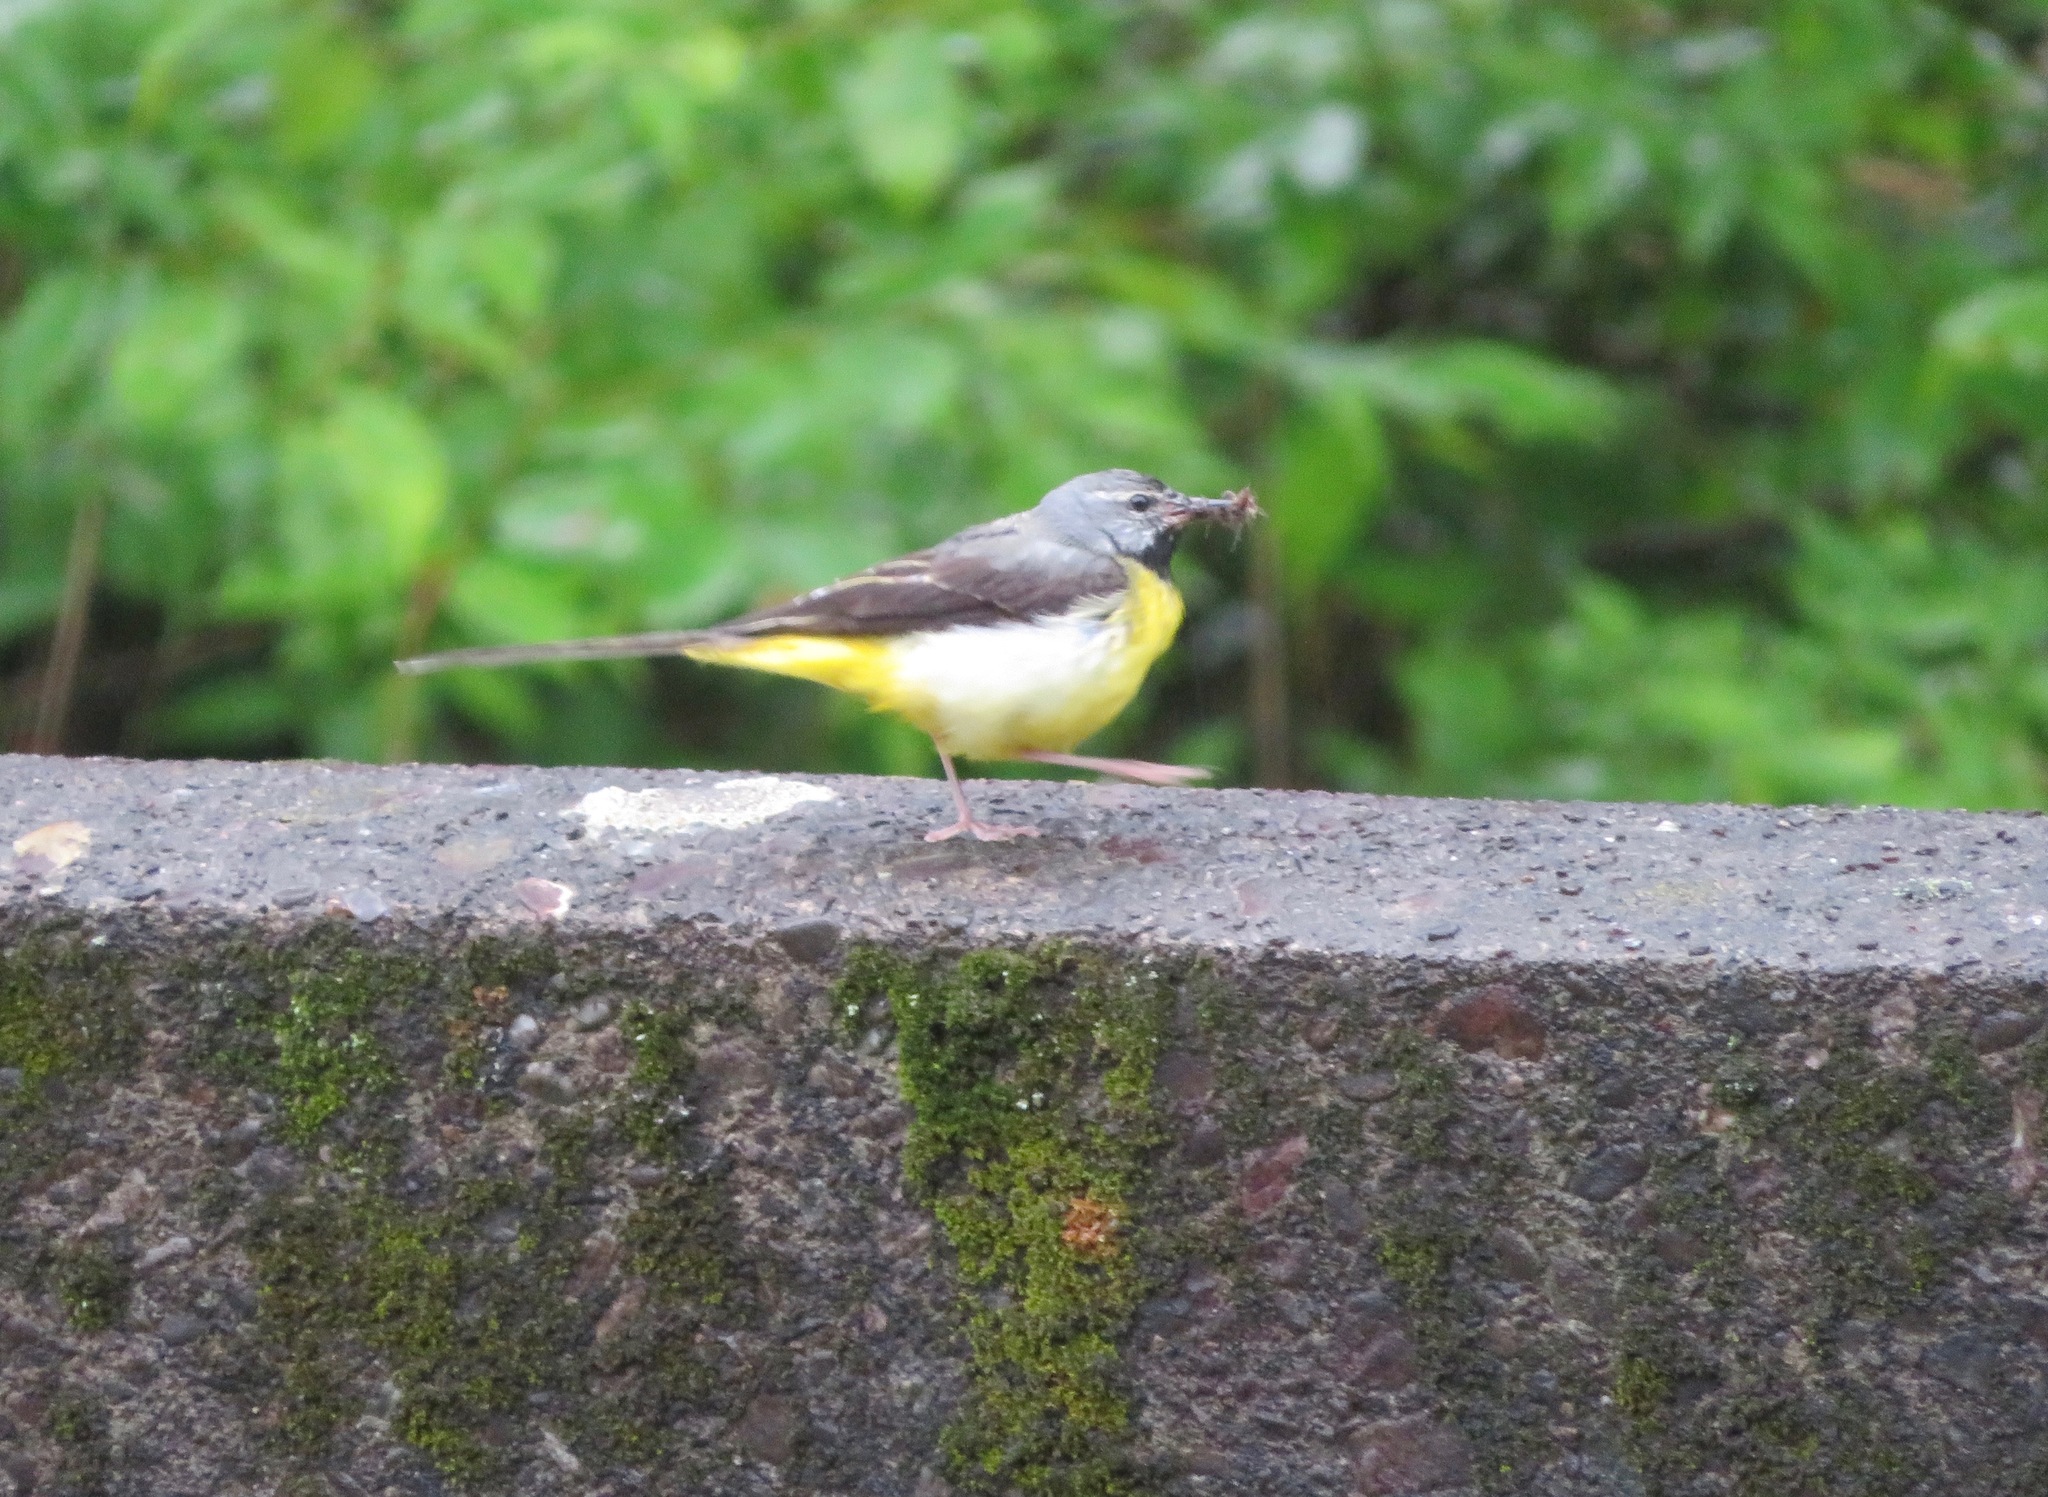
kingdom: Animalia
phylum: Chordata
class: Aves
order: Passeriformes
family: Motacillidae
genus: Motacilla
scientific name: Motacilla cinerea
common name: Grey wagtail
